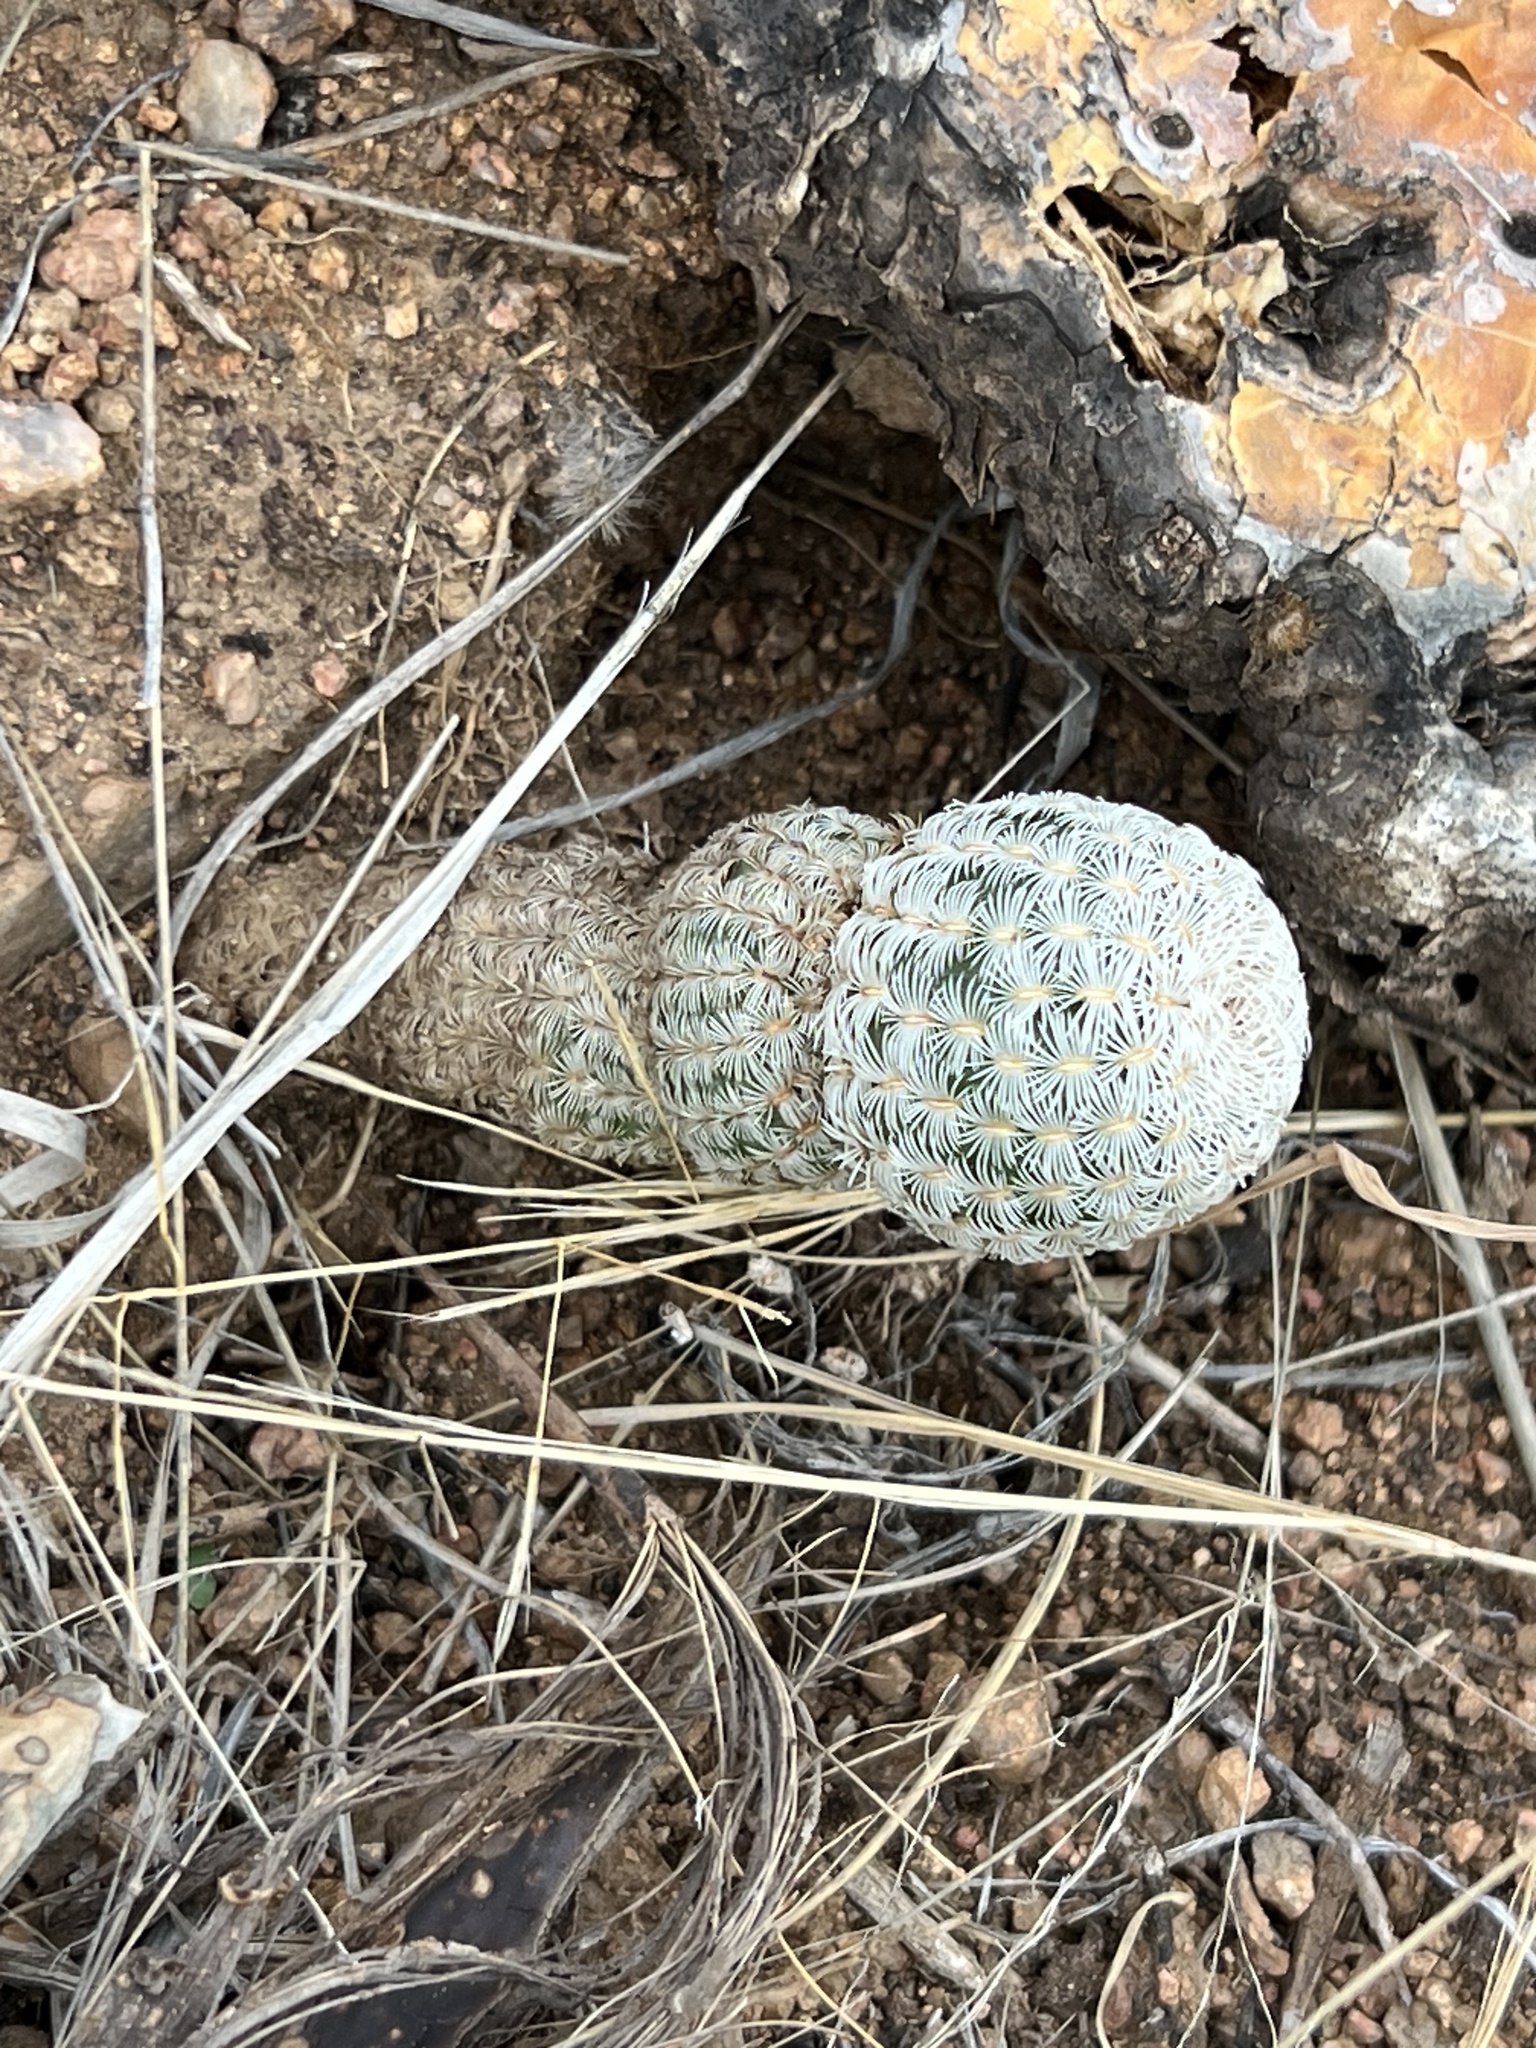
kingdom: Plantae
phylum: Tracheophyta
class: Magnoliopsida
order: Caryophyllales
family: Cactaceae
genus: Echinocereus
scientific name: Echinocereus rigidissimus
